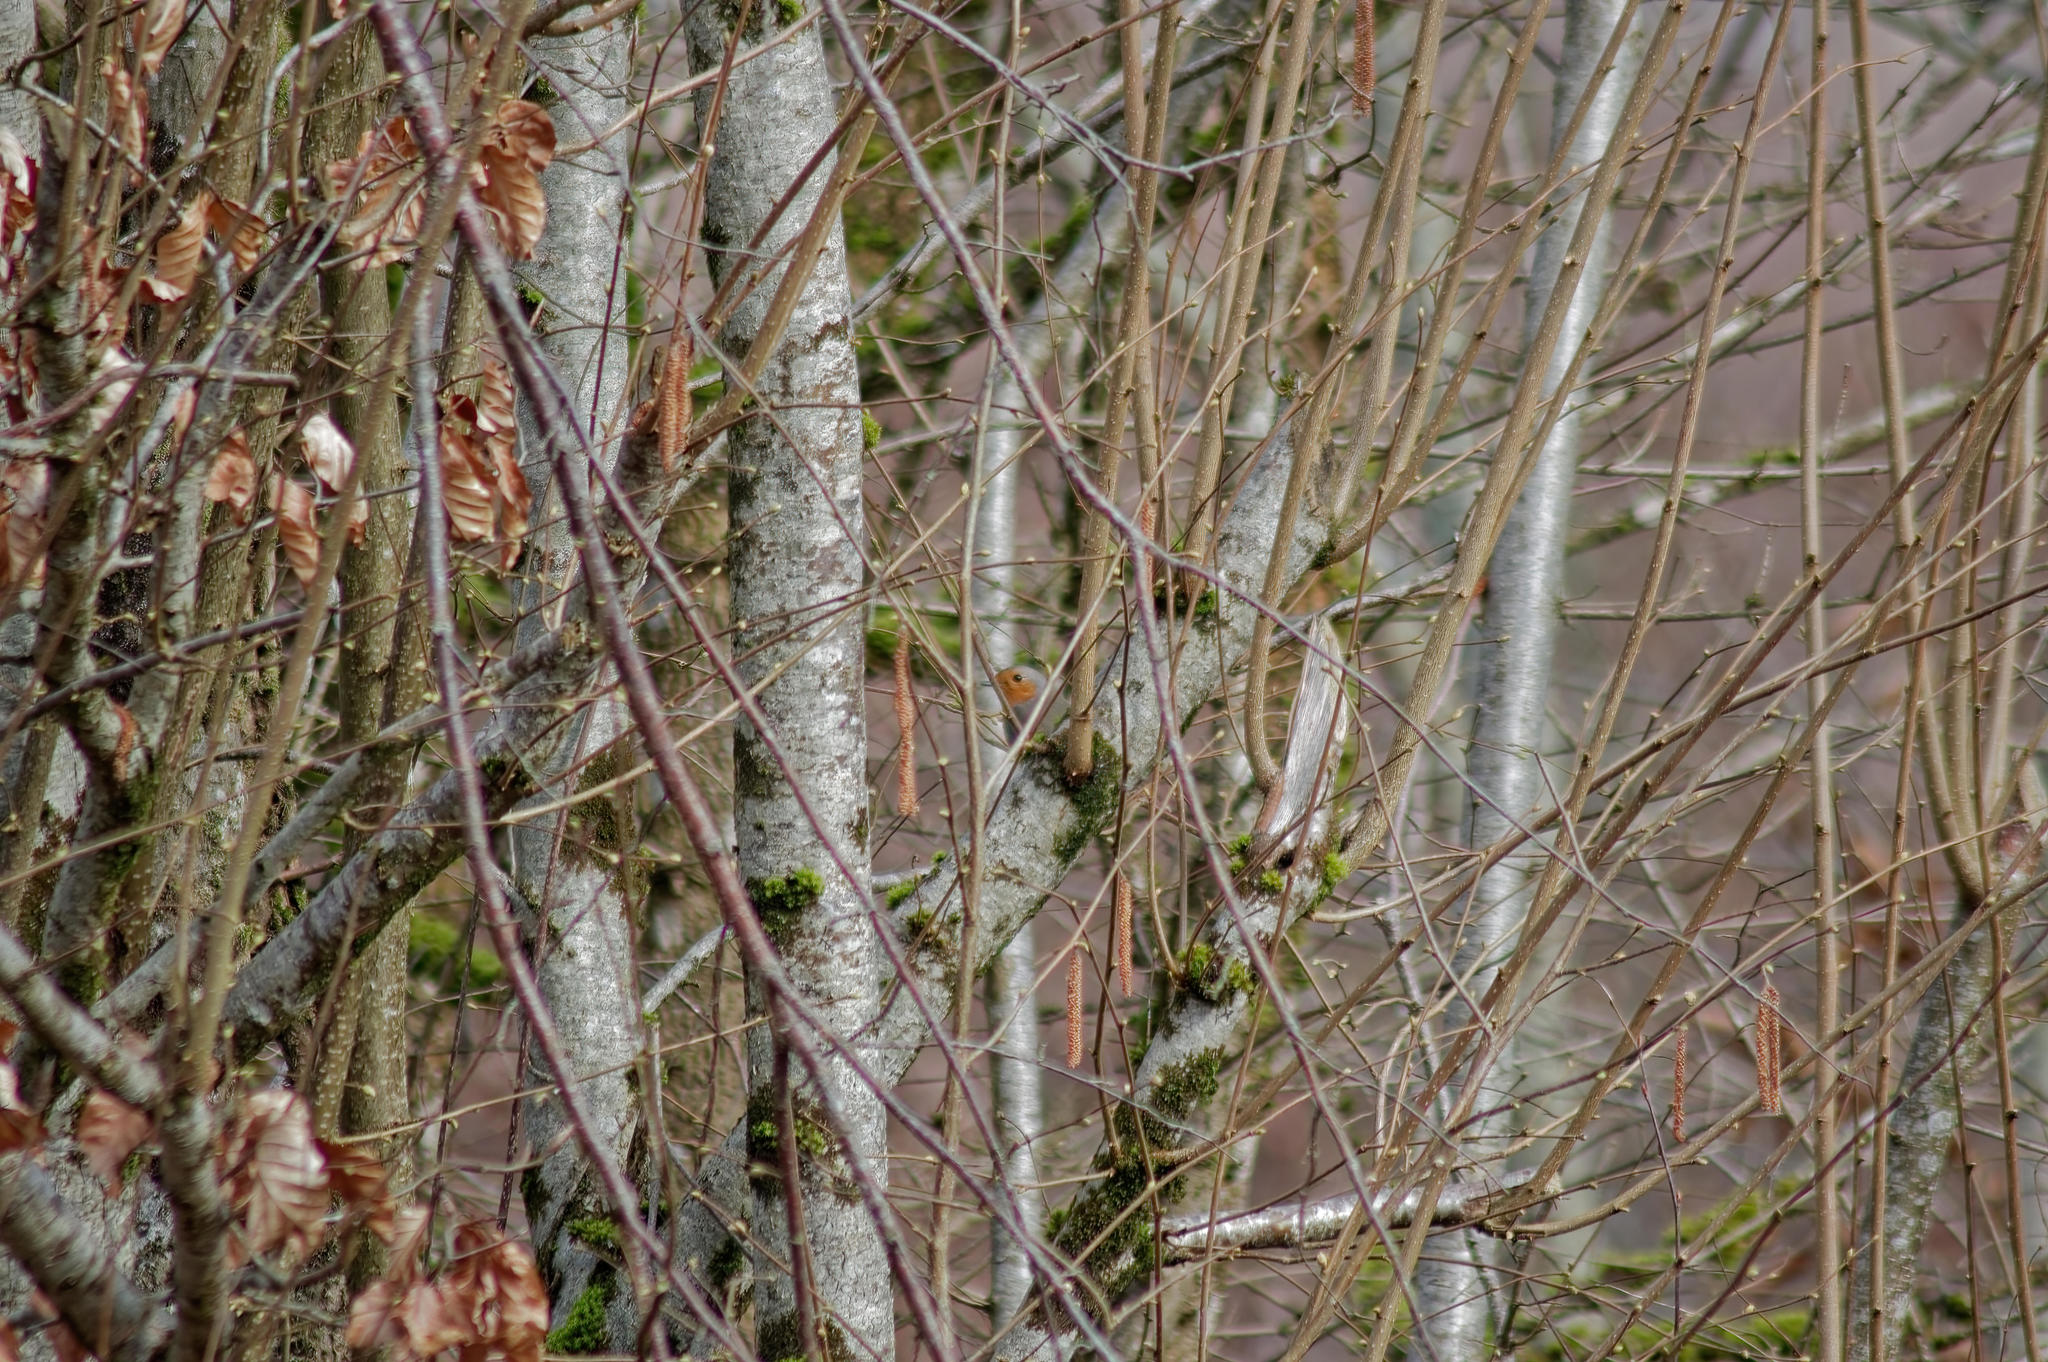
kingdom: Animalia
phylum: Chordata
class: Aves
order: Passeriformes
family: Muscicapidae
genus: Erithacus
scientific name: Erithacus rubecula
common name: European robin
